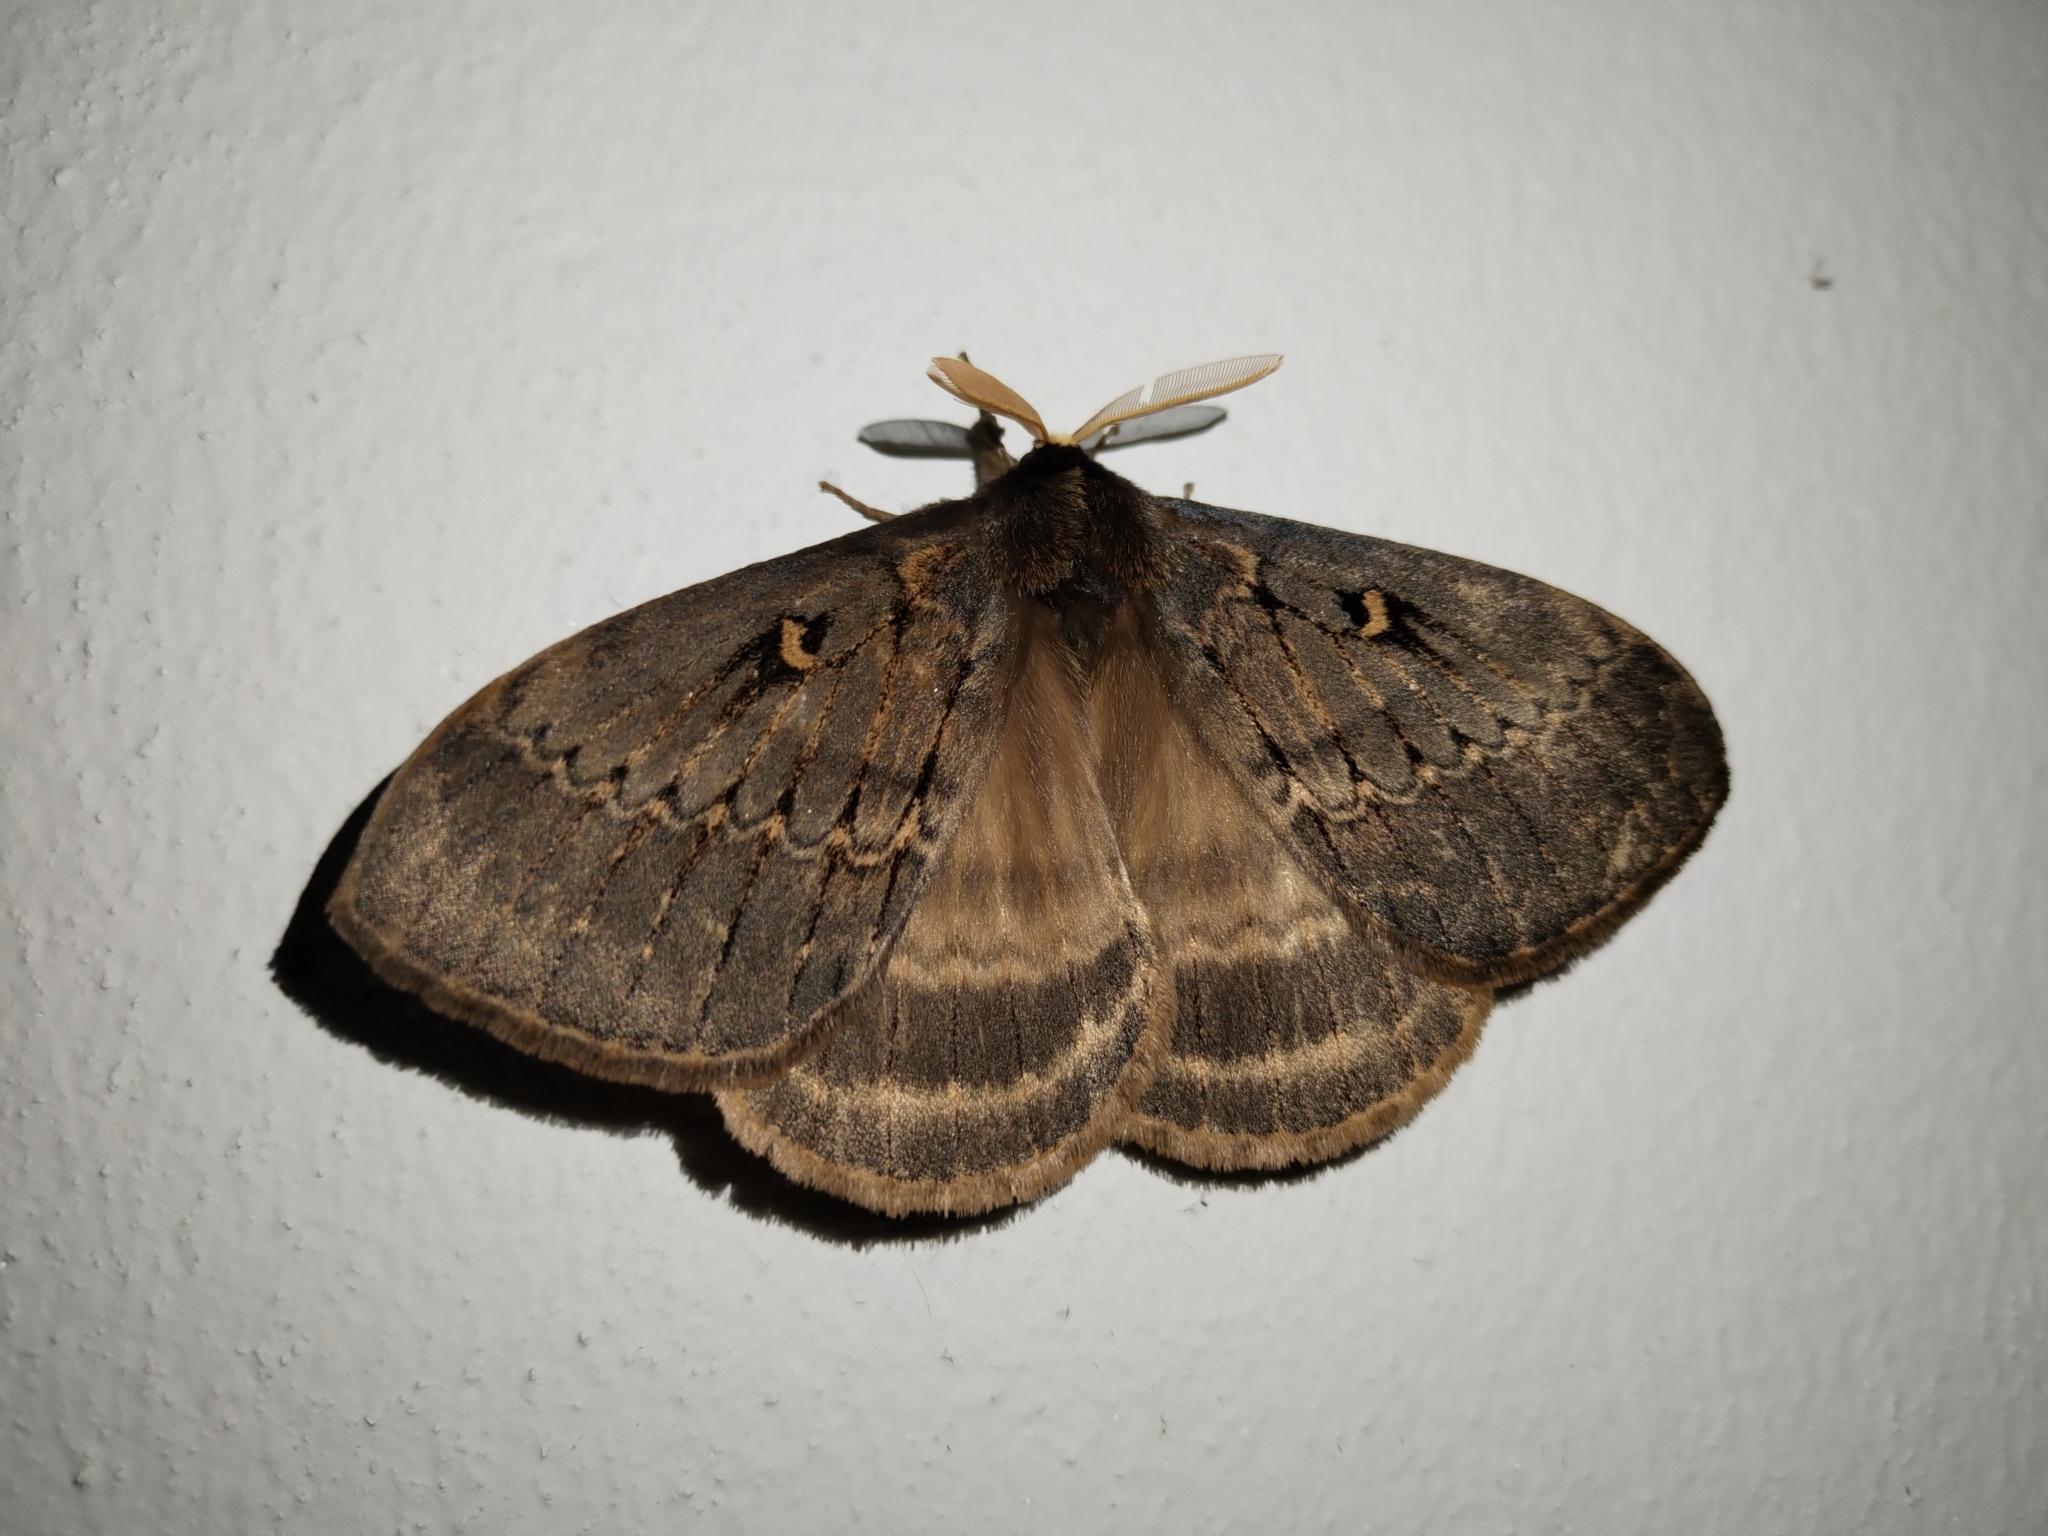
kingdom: Animalia
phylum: Arthropoda
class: Insecta
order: Lepidoptera
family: Eupterotidae
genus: Jana
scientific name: Jana tantalus
